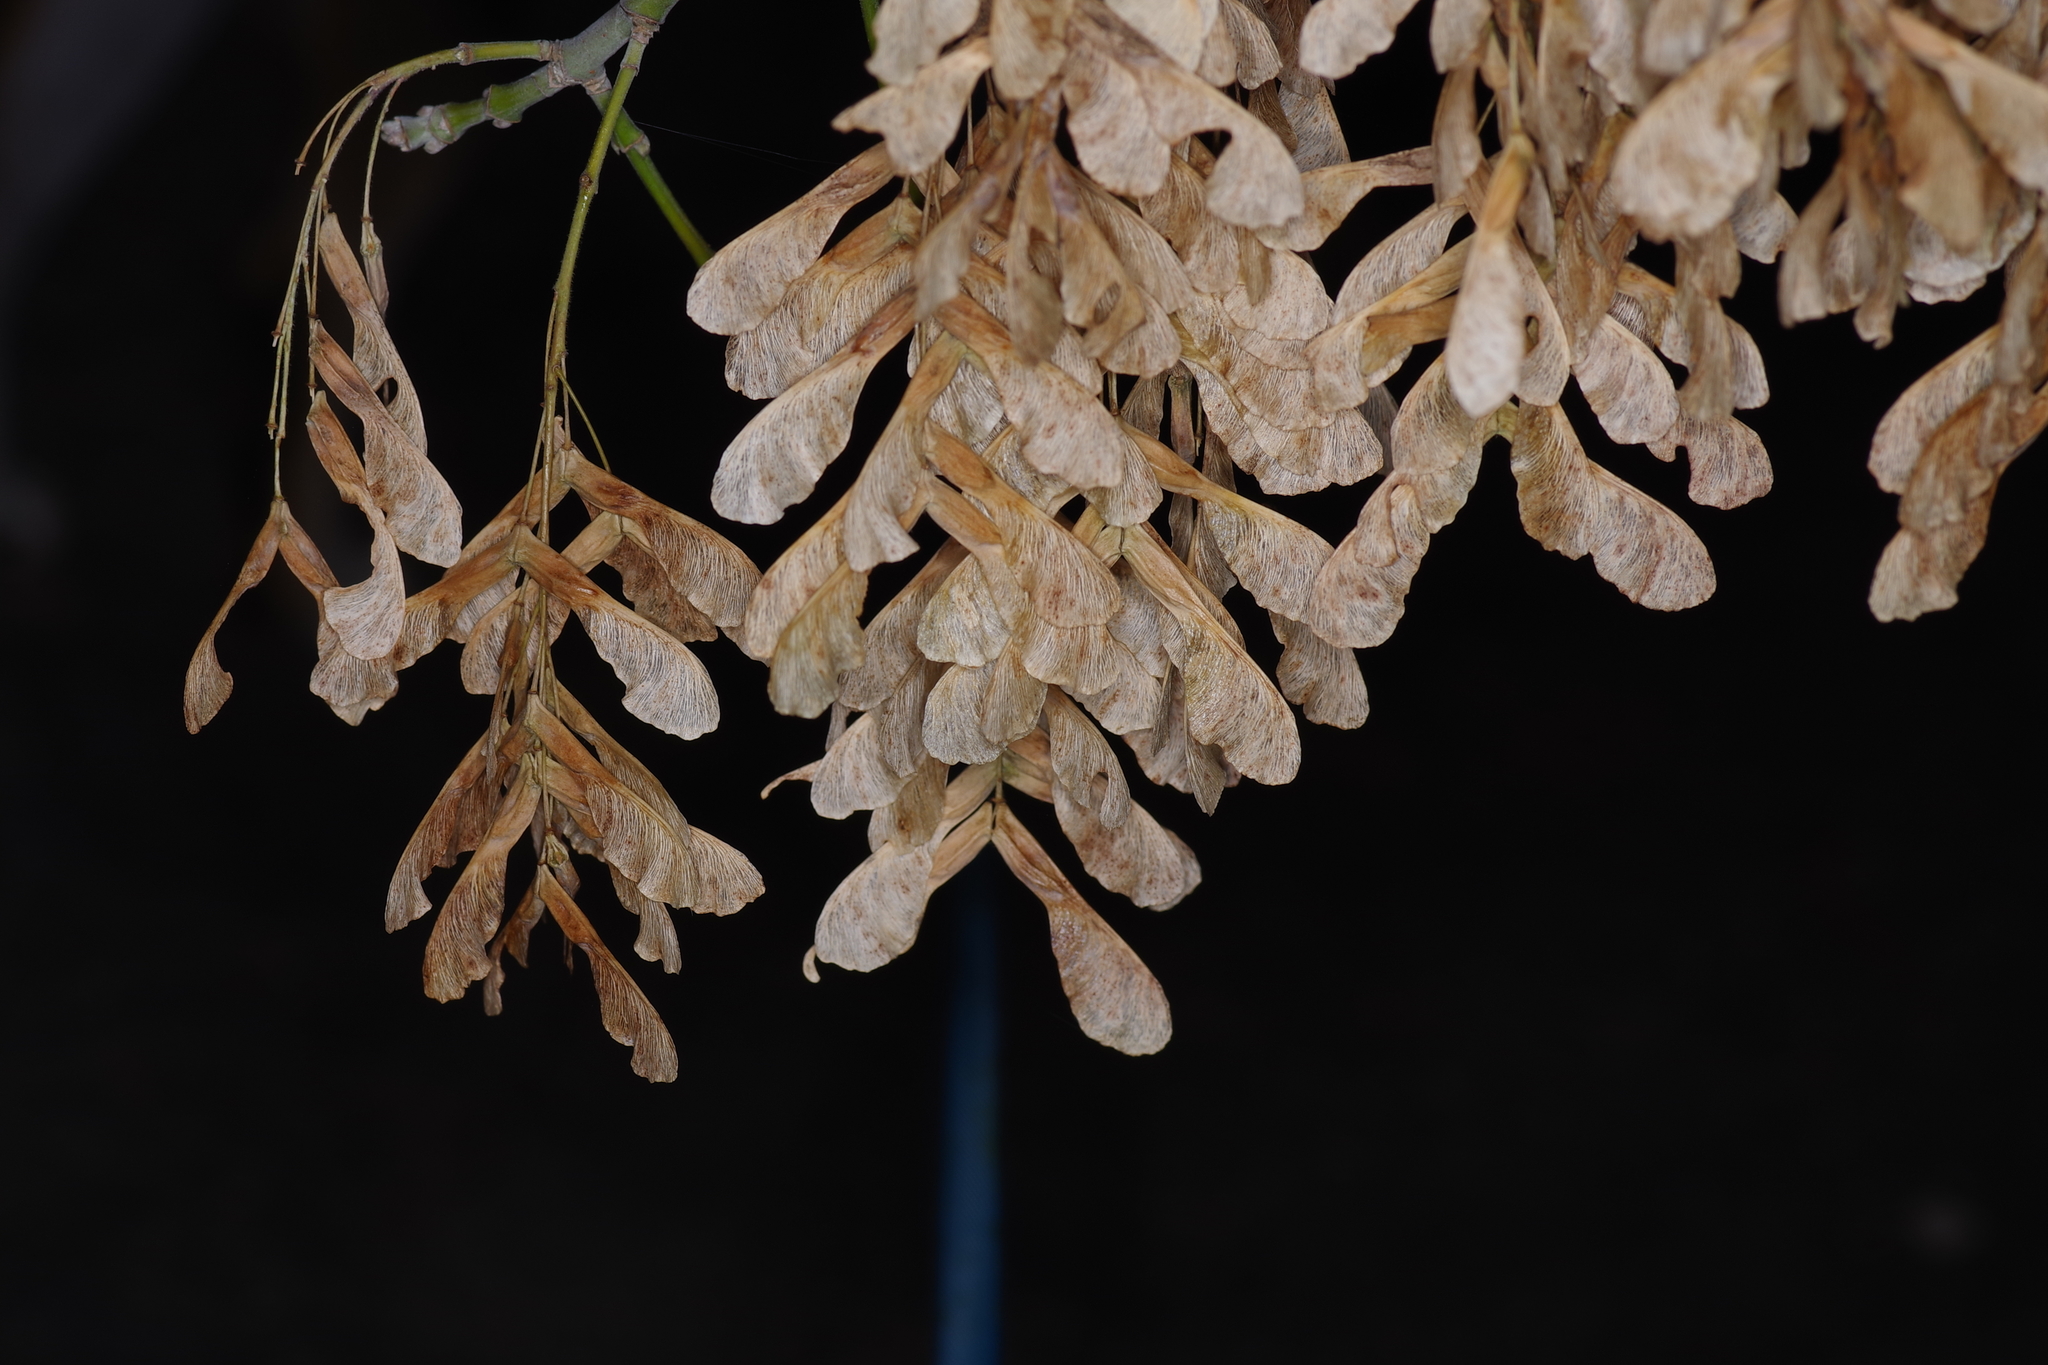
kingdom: Plantae
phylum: Tracheophyta
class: Magnoliopsida
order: Sapindales
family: Sapindaceae
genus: Acer
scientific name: Acer negundo
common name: Ashleaf maple
